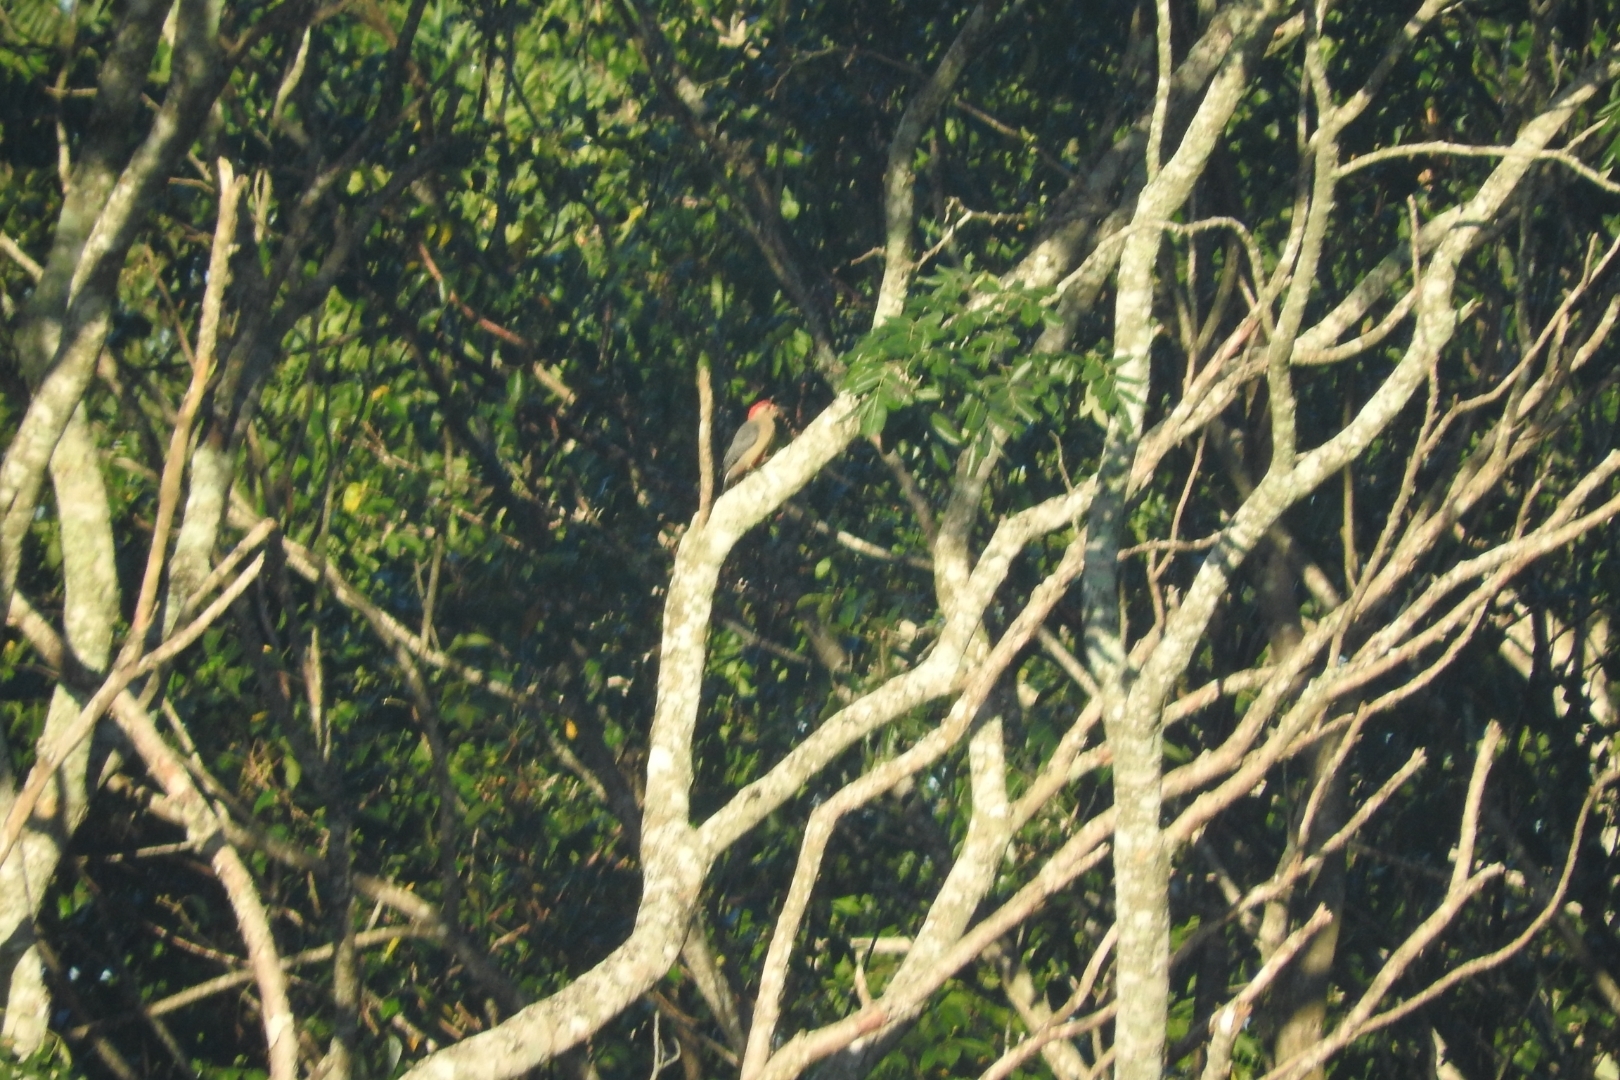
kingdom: Animalia
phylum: Chordata
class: Aves
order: Piciformes
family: Picidae
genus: Melanerpes
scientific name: Melanerpes aurifrons
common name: Golden-fronted woodpecker
